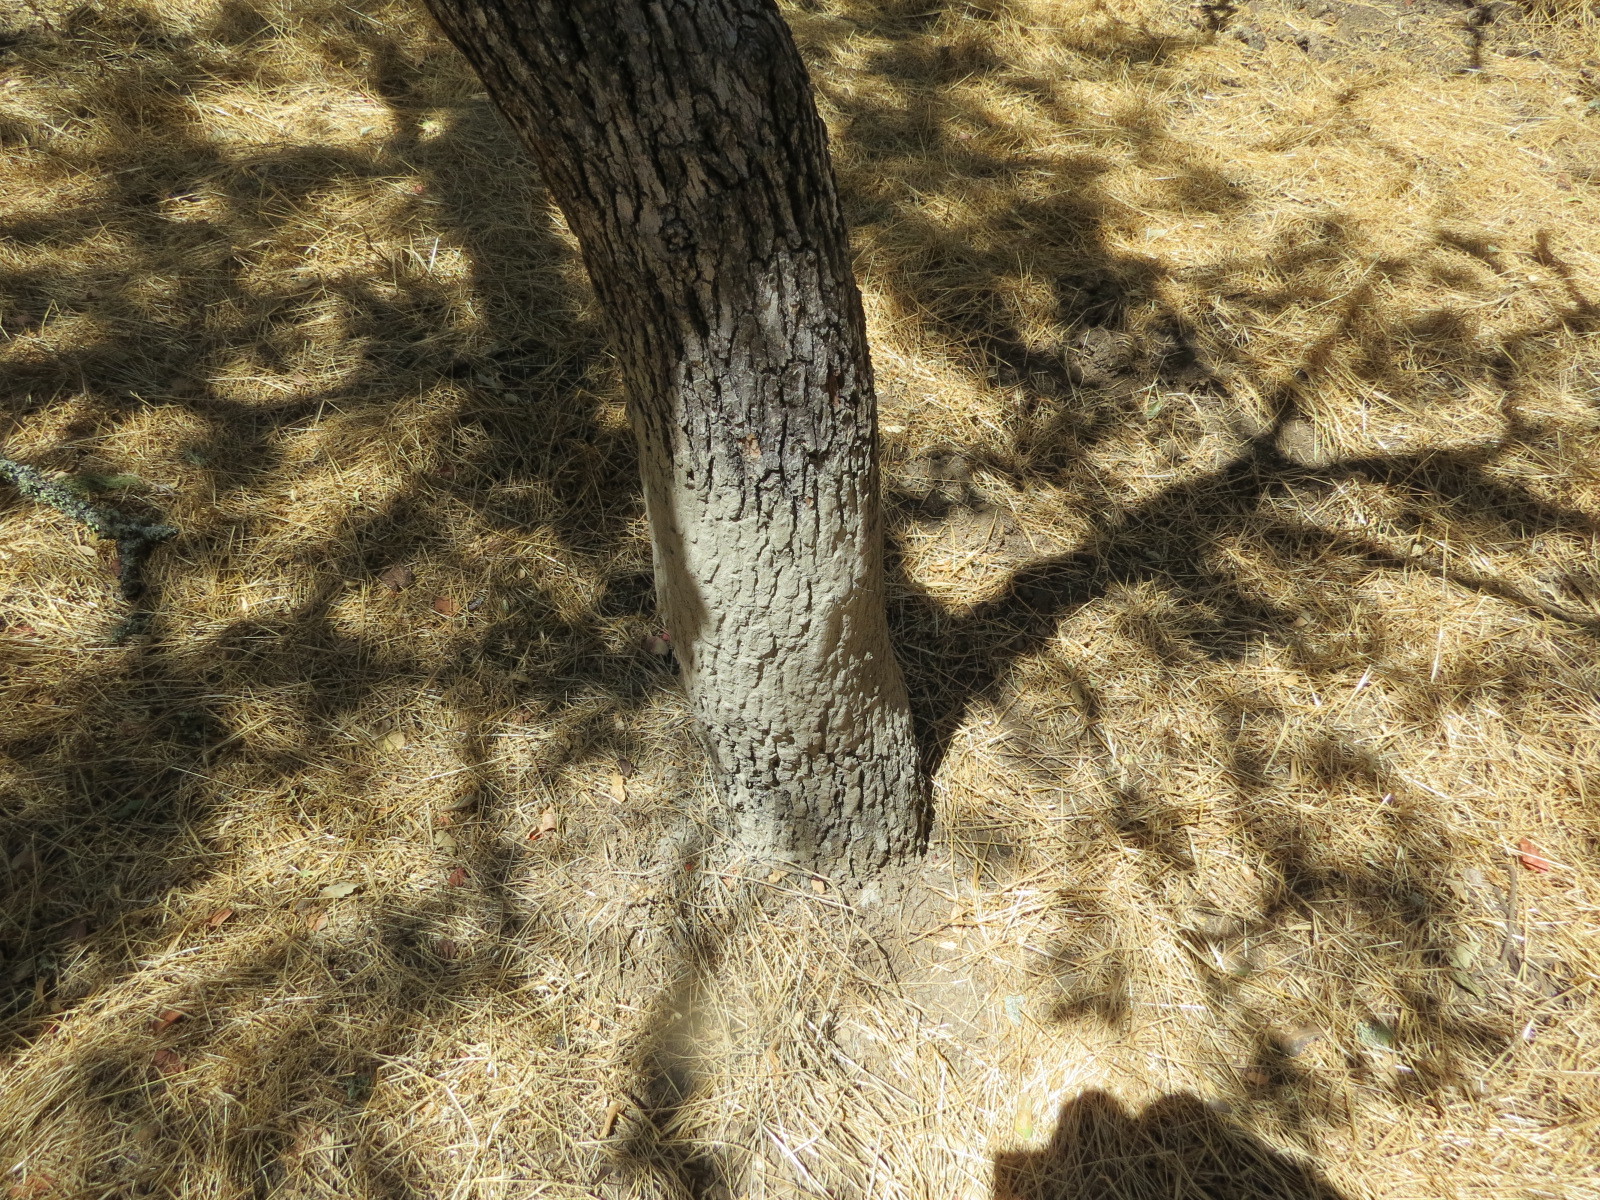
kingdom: Animalia
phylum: Chordata
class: Mammalia
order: Artiodactyla
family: Suidae
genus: Sus
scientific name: Sus scrofa
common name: Wild boar
